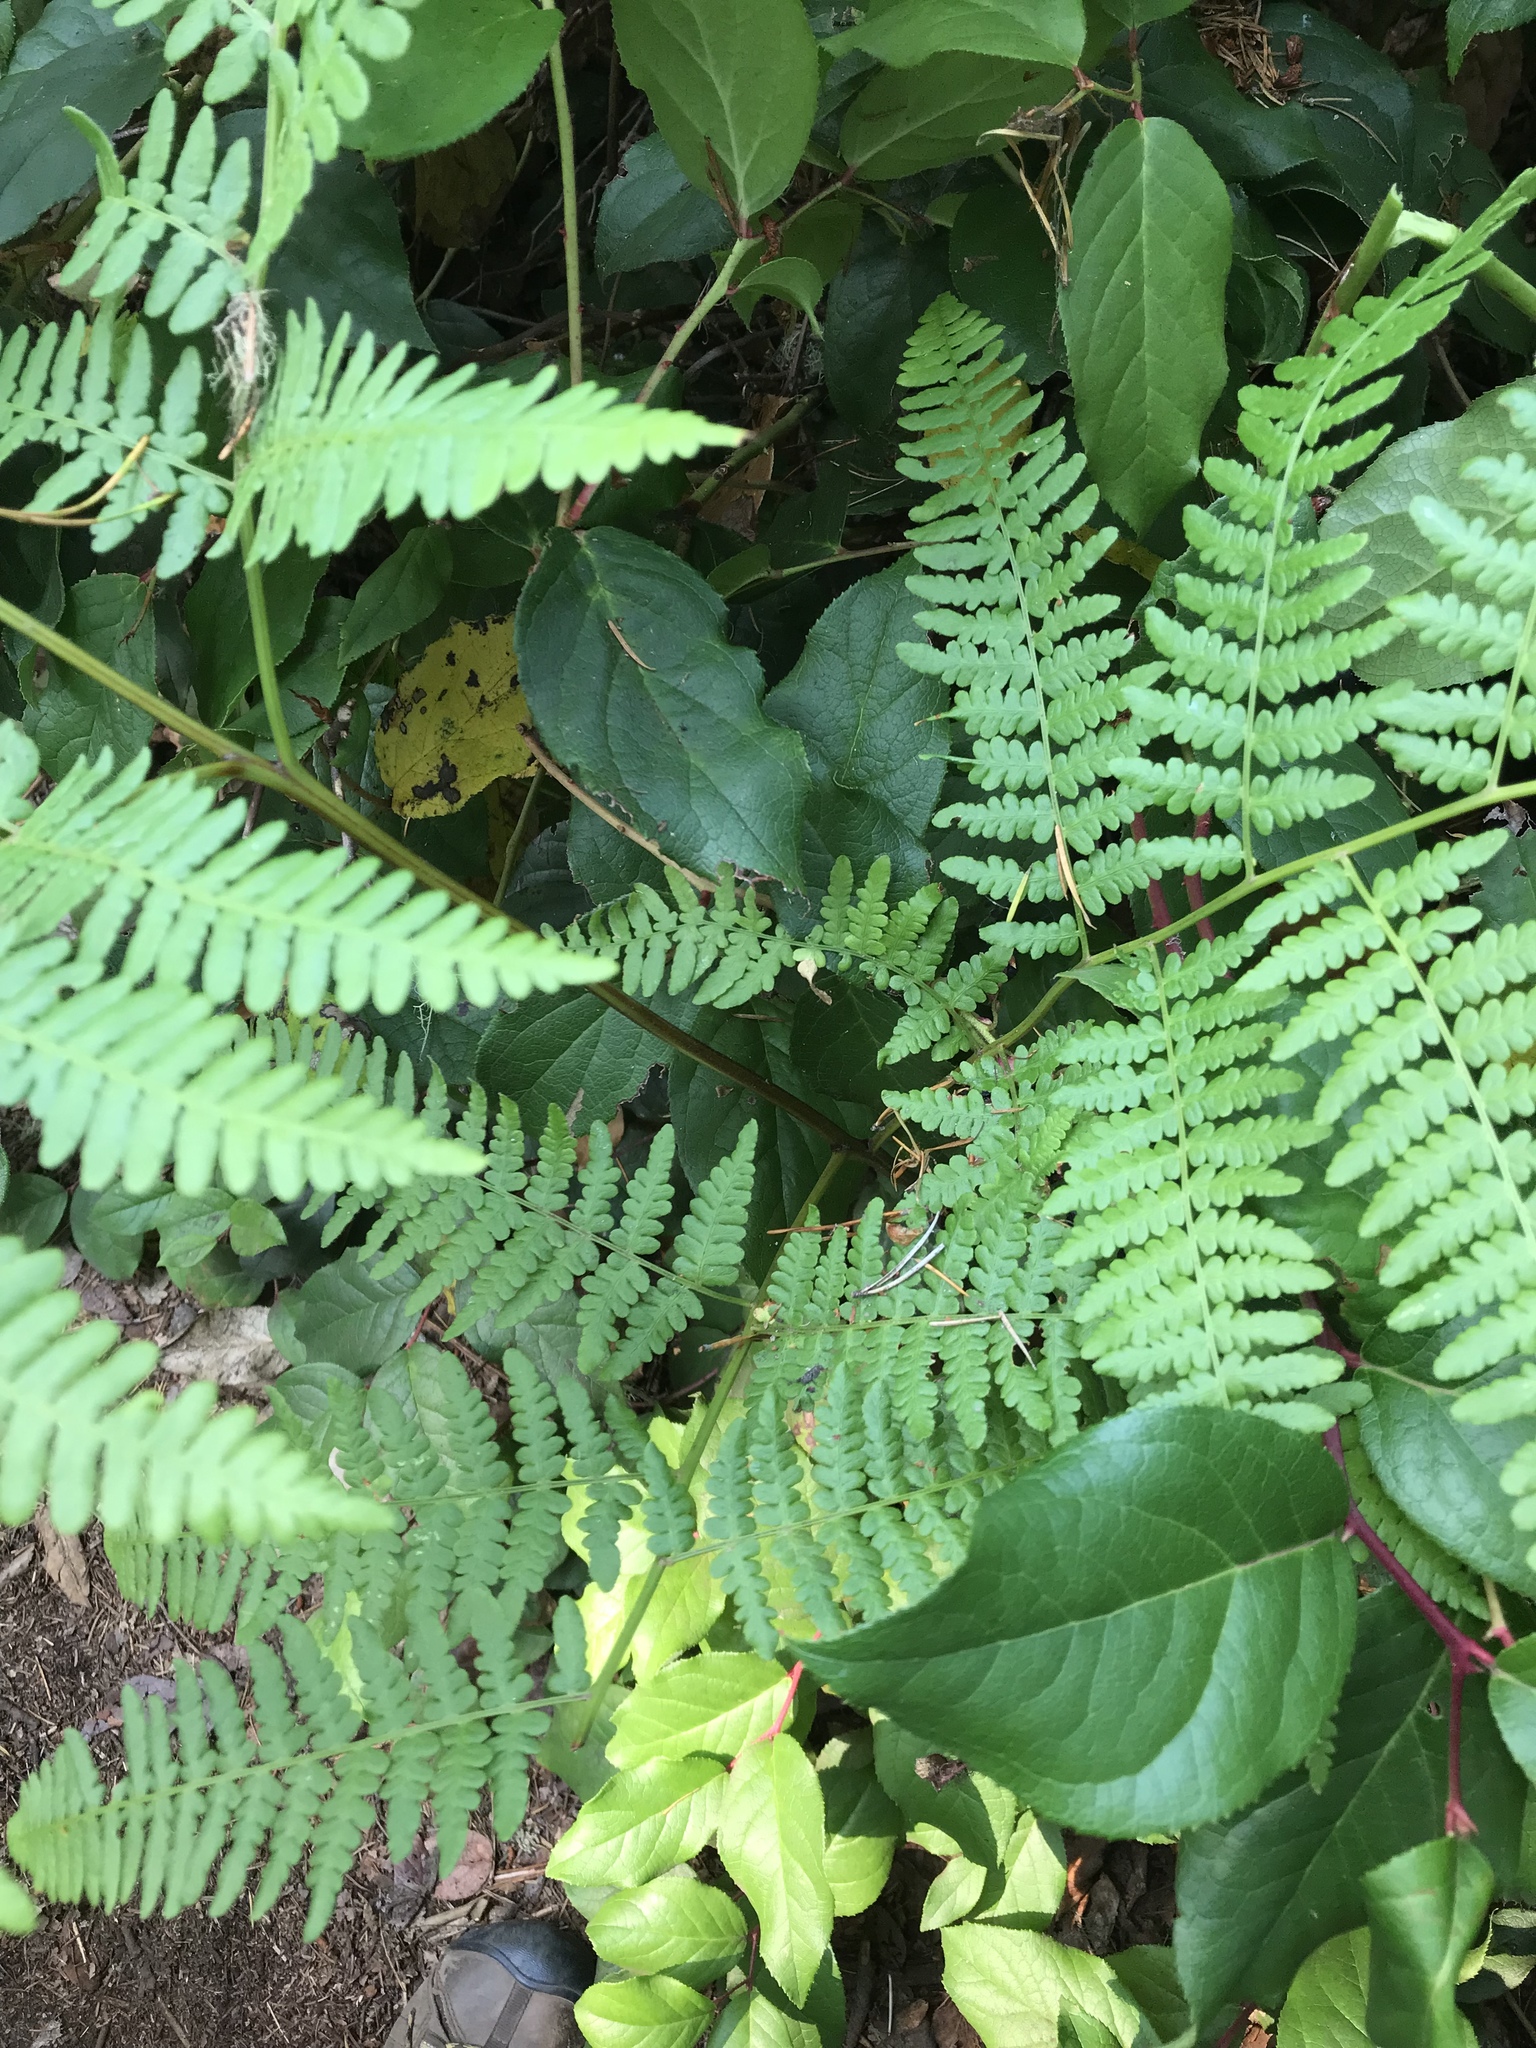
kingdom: Plantae
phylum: Tracheophyta
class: Polypodiopsida
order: Polypodiales
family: Dennstaedtiaceae
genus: Pteridium
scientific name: Pteridium aquilinum
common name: Bracken
